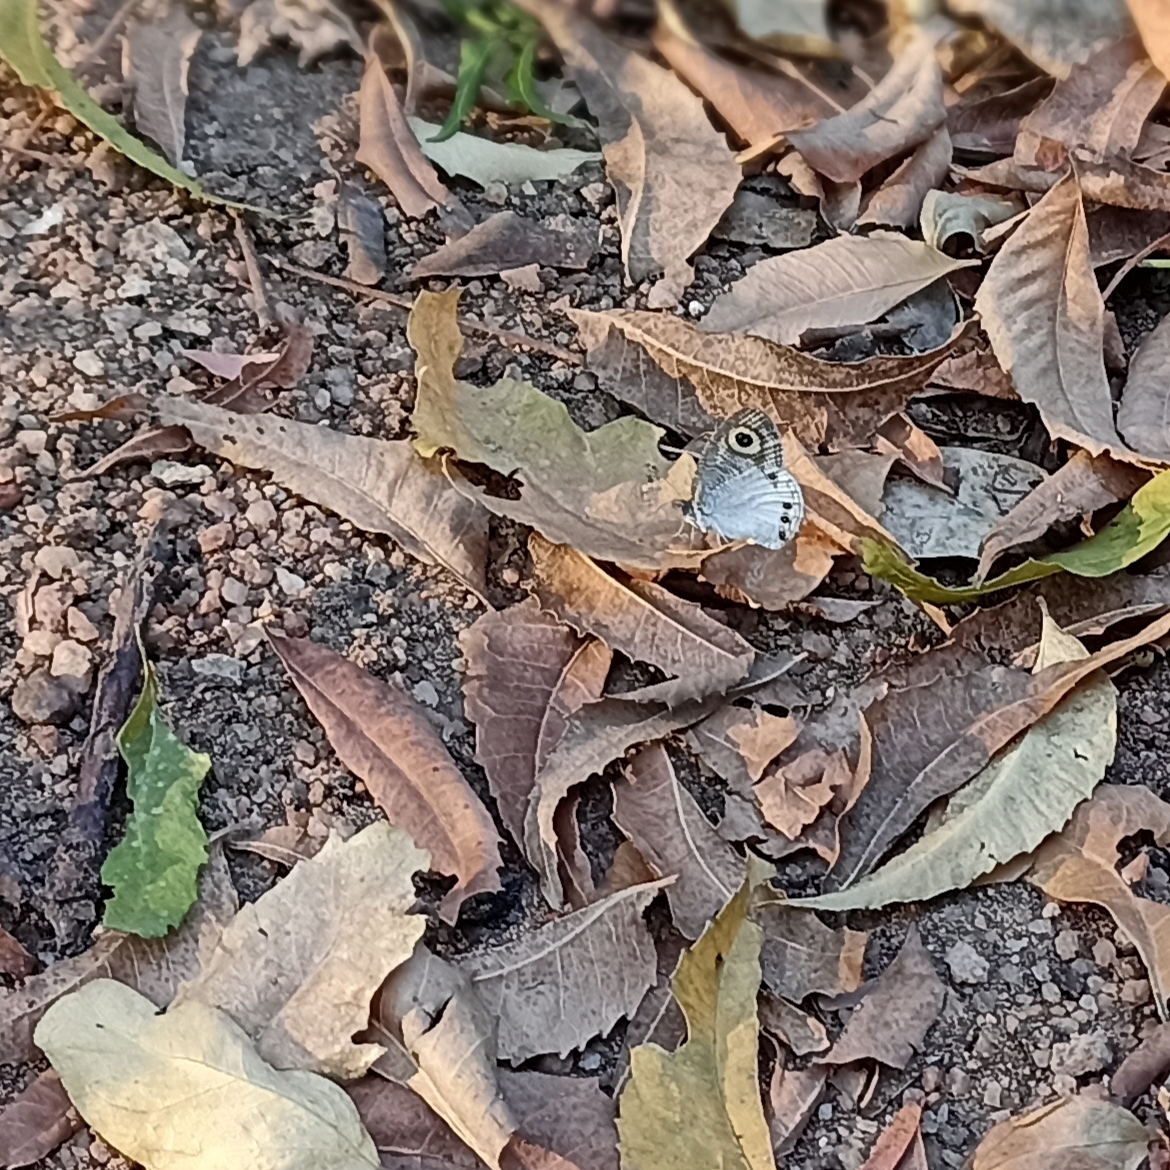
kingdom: Animalia
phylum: Arthropoda
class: Insecta
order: Lepidoptera
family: Nymphalidae
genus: Ypthima
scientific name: Ypthima ceylonica
